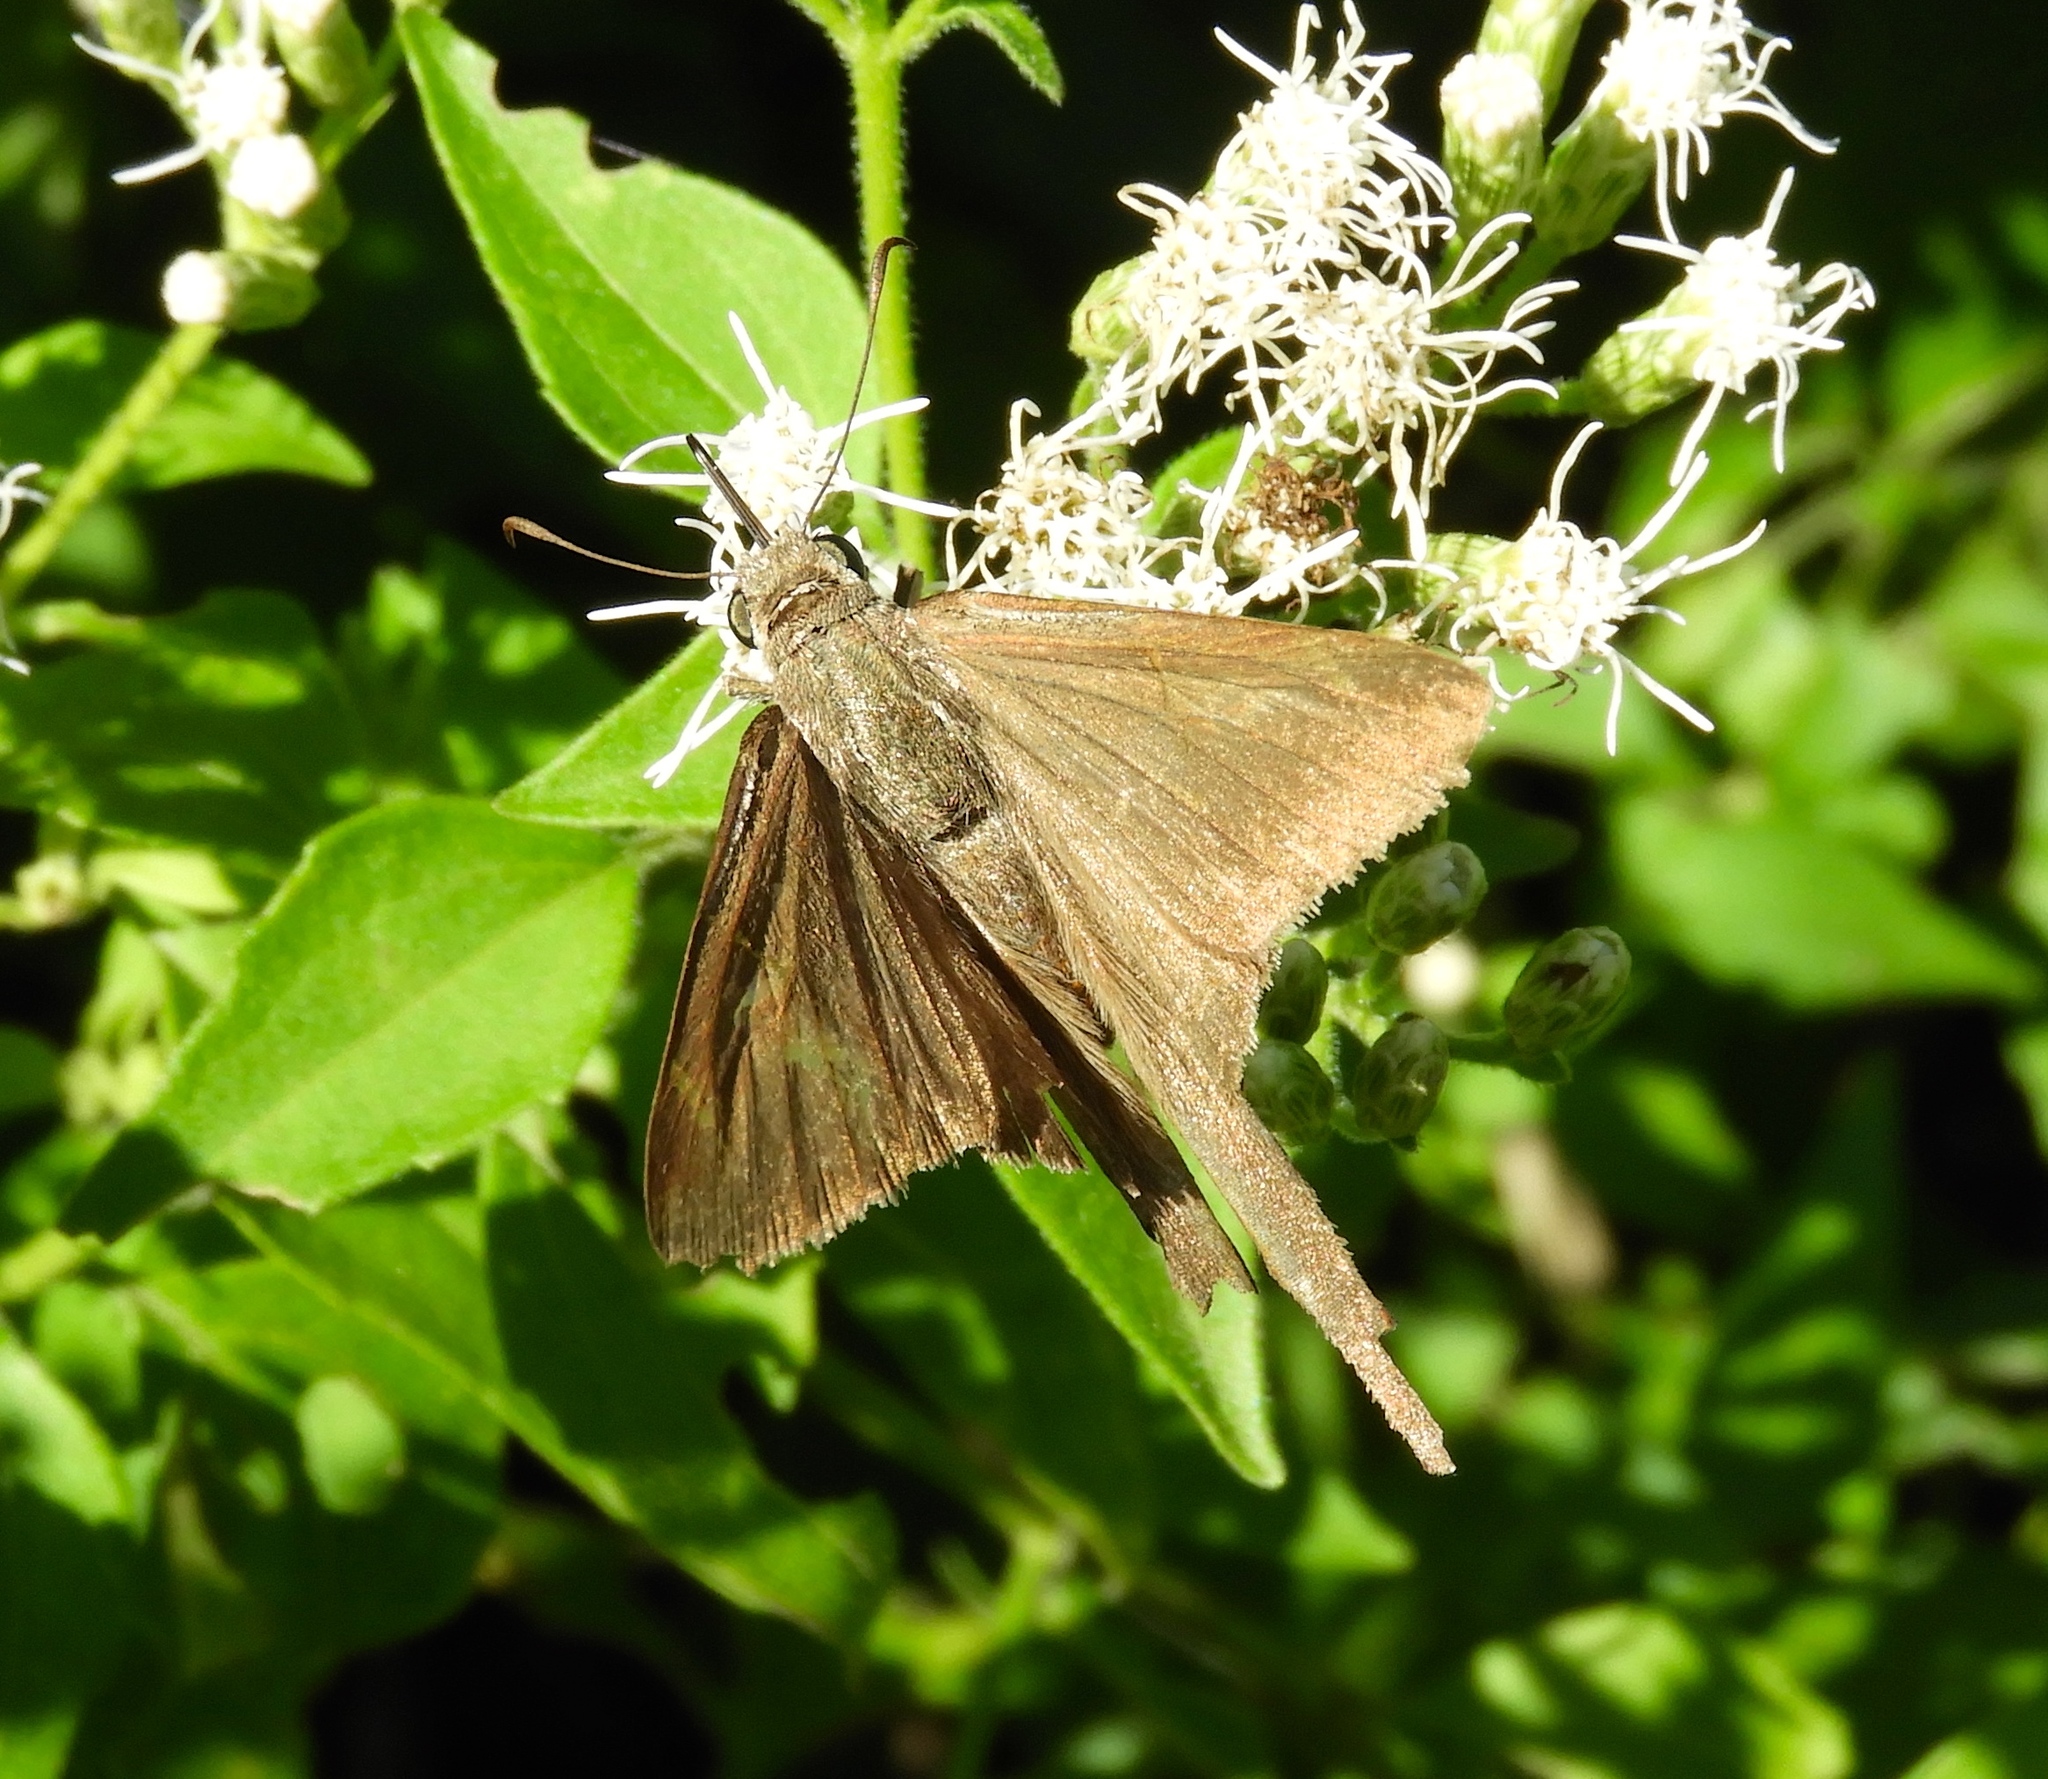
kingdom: Animalia
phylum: Arthropoda
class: Insecta
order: Lepidoptera
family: Hesperiidae
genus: Urbanus
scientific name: Urbanus simplicius
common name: Plain longtail
